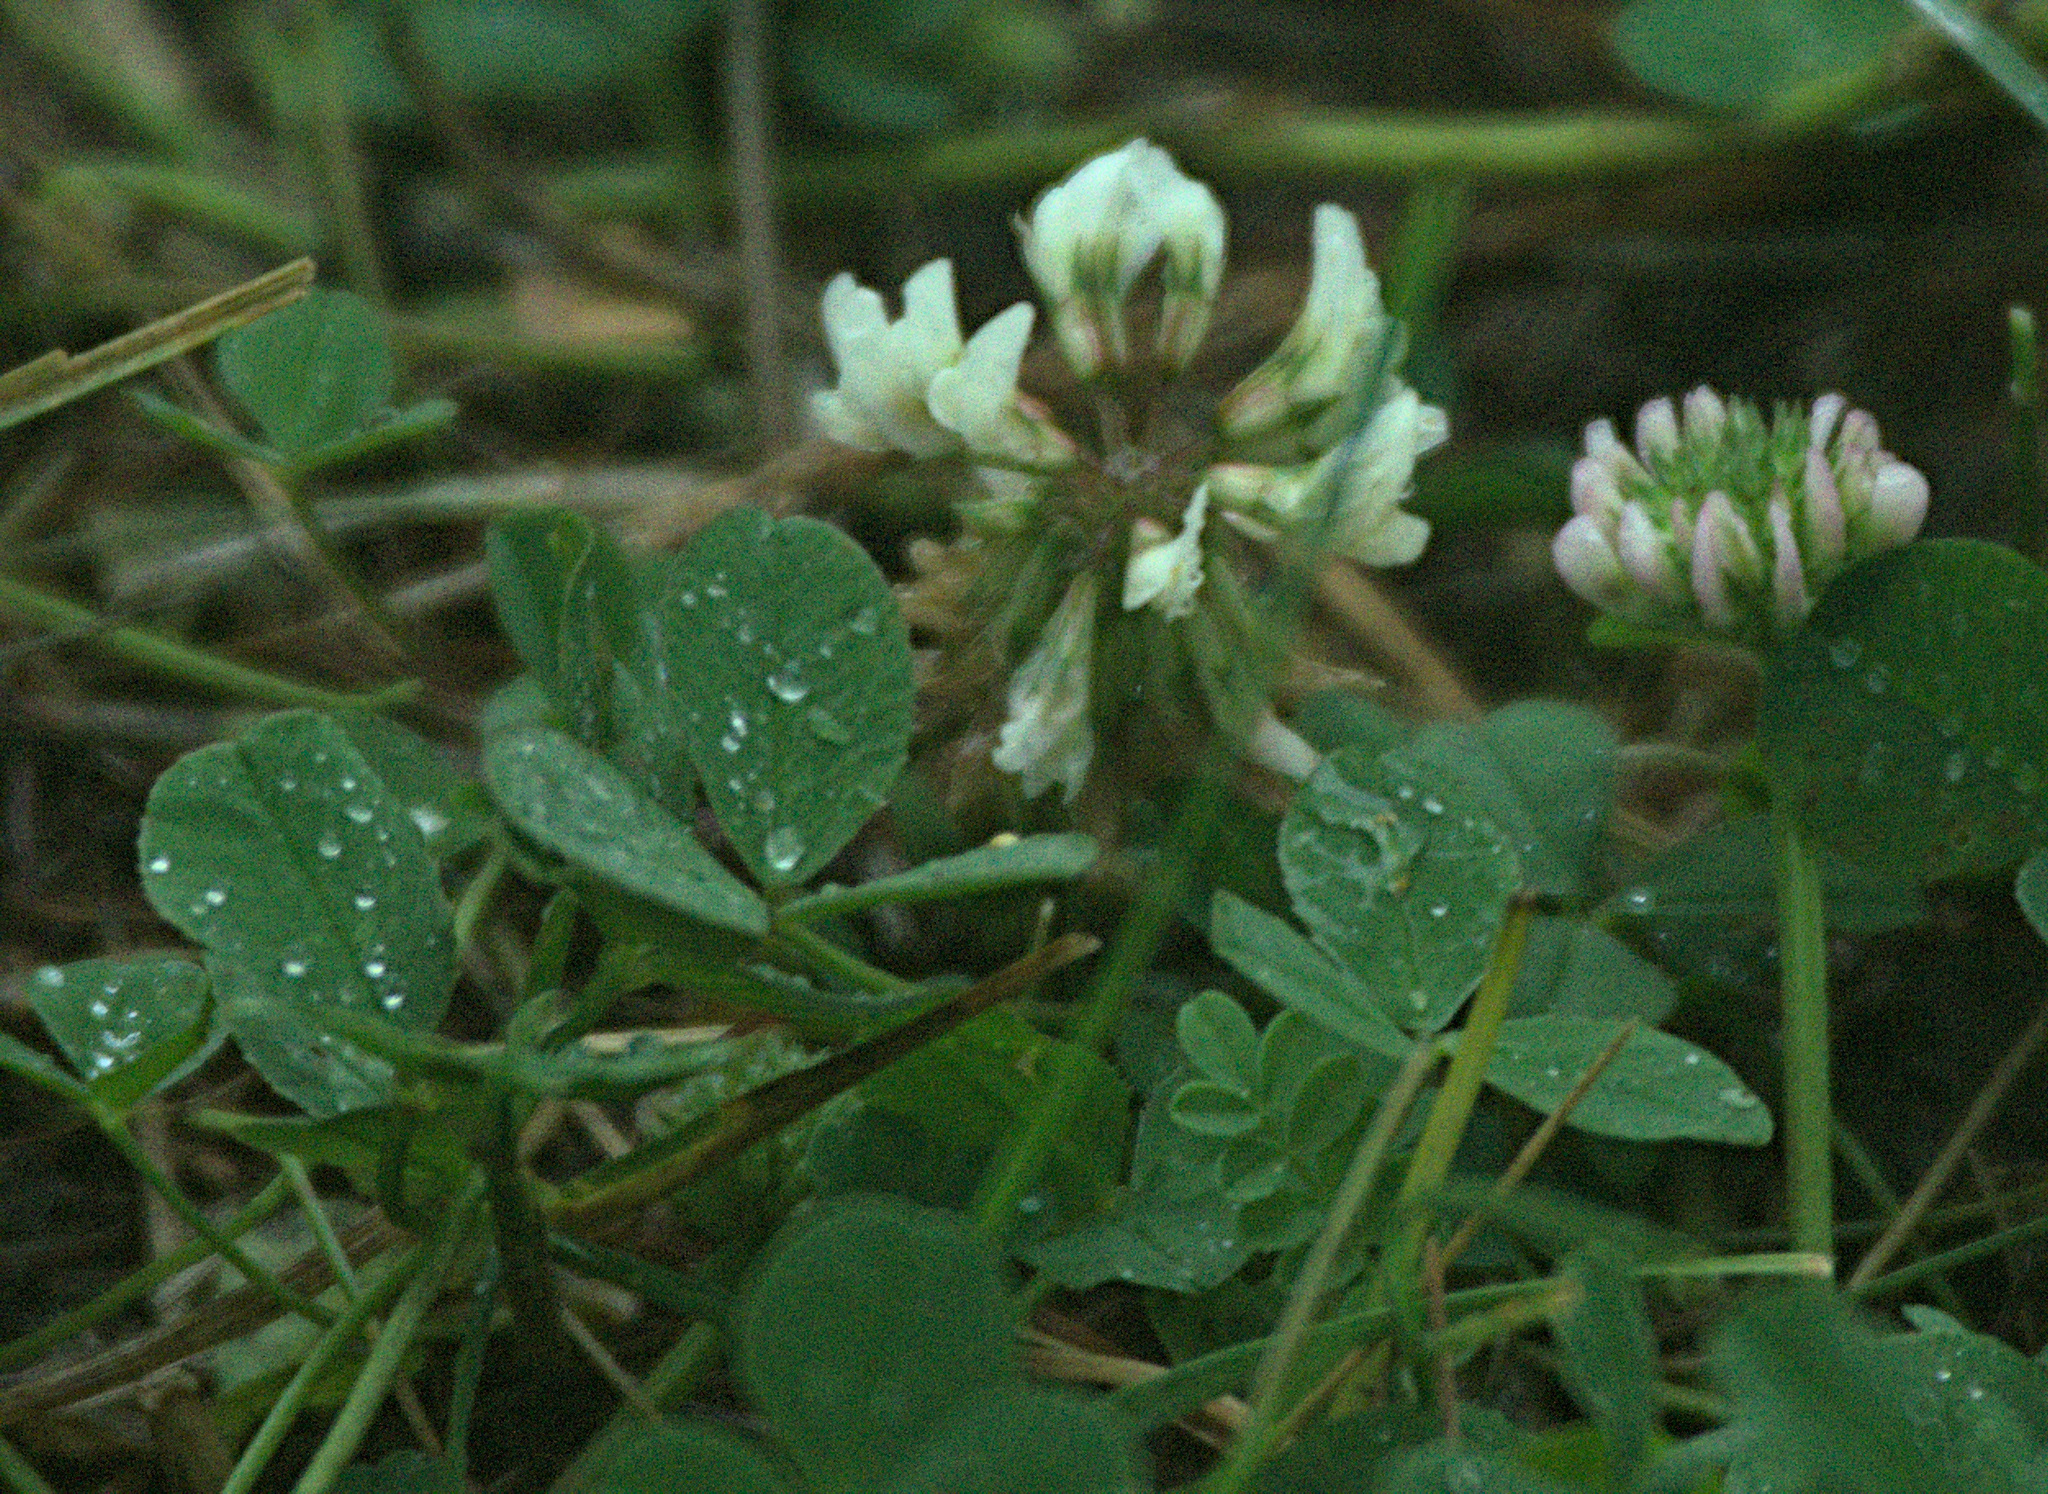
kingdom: Plantae
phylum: Tracheophyta
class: Magnoliopsida
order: Fabales
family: Fabaceae
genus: Trifolium
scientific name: Trifolium repens
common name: White clover
